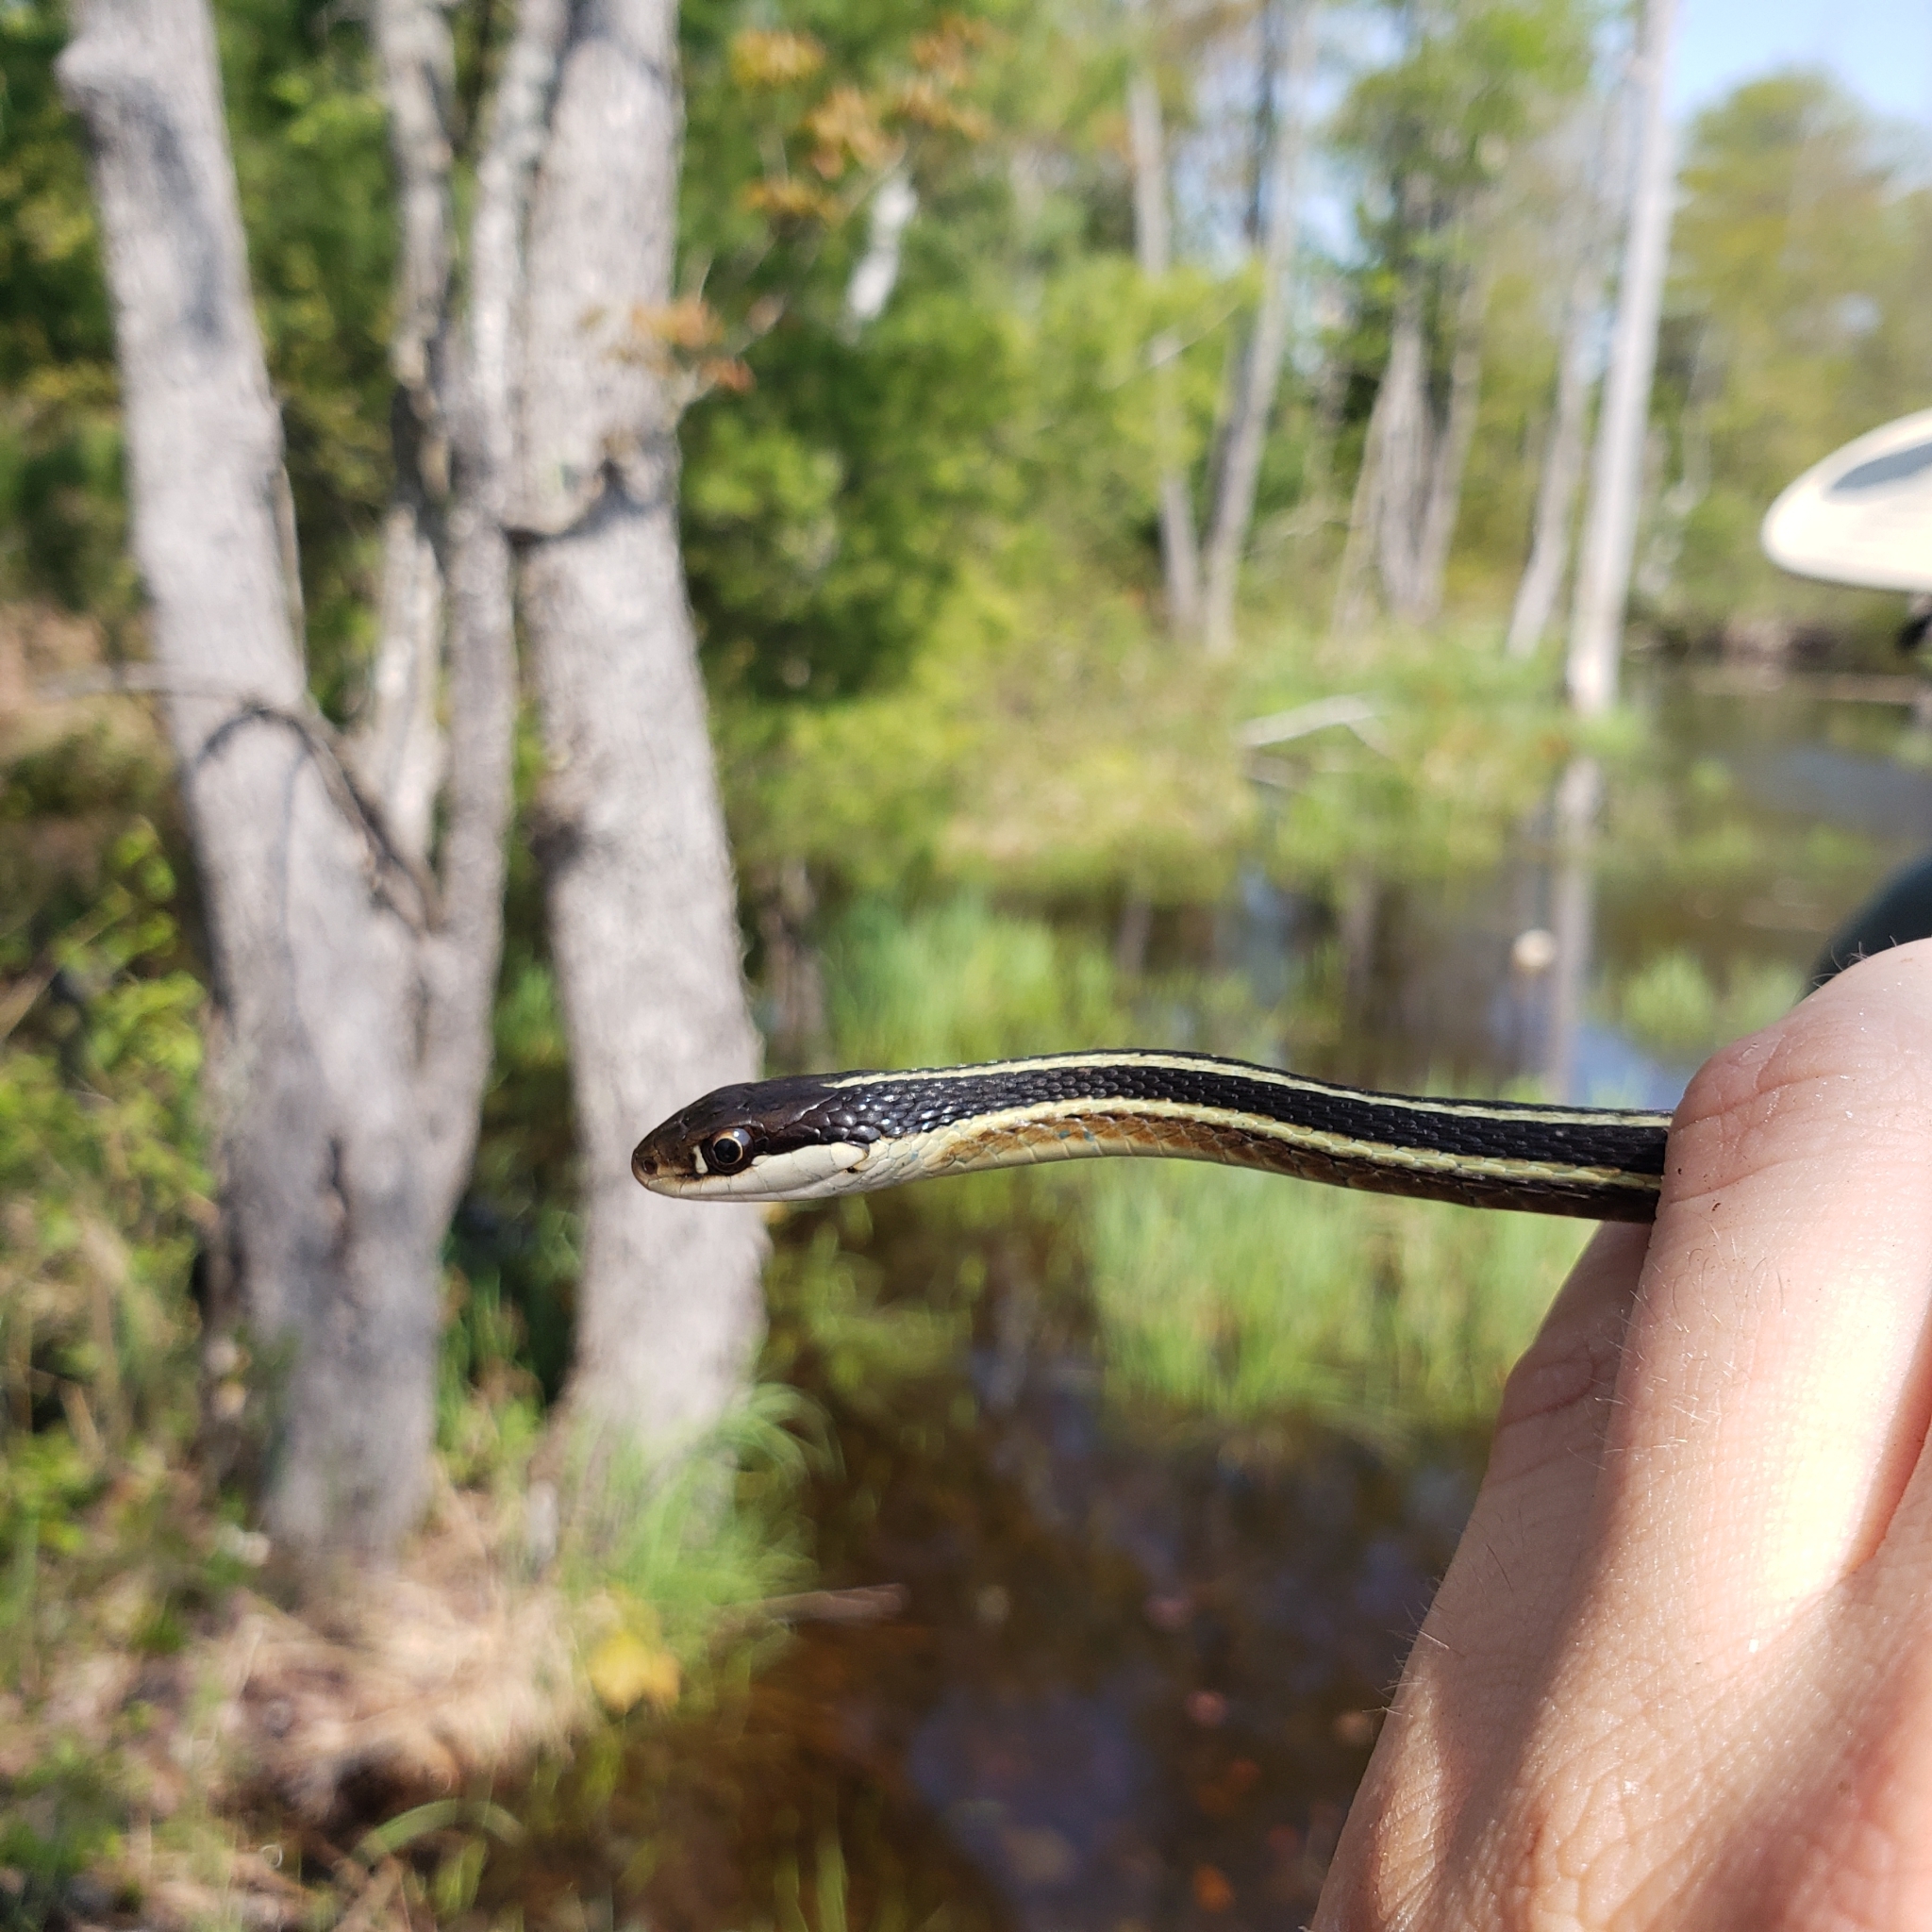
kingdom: Animalia
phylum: Chordata
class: Squamata
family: Colubridae
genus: Thamnophis
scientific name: Thamnophis saurita
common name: Eastern ribbonsnake
